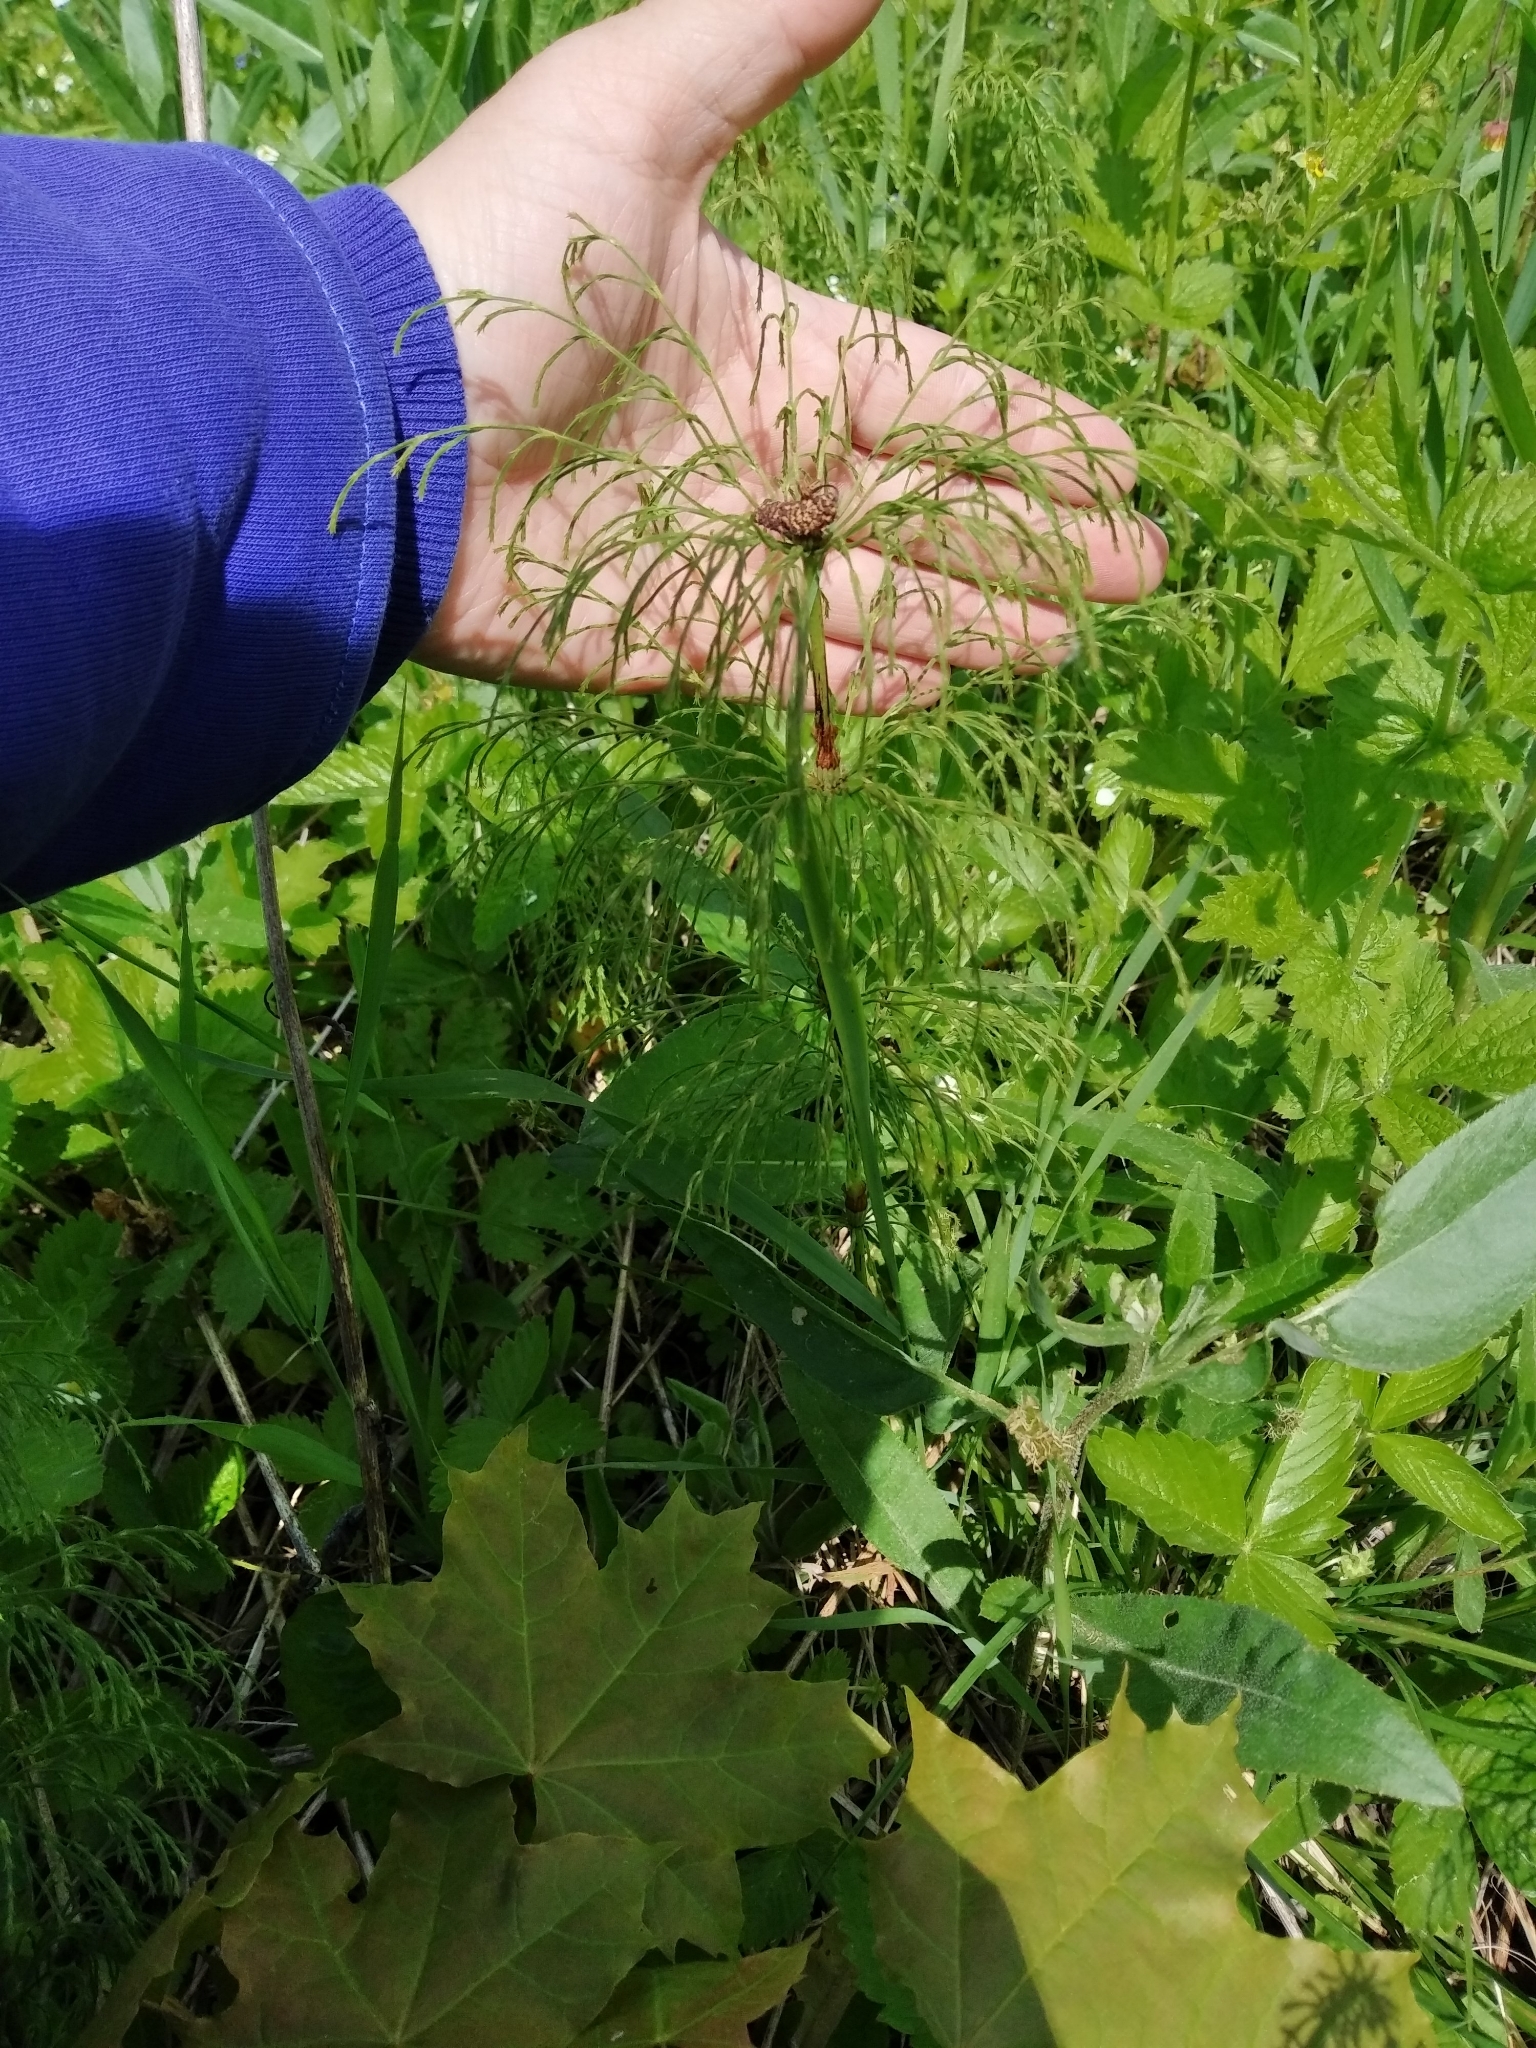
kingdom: Plantae
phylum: Tracheophyta
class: Polypodiopsida
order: Equisetales
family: Equisetaceae
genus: Equisetum
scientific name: Equisetum sylvaticum
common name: Wood horsetail
